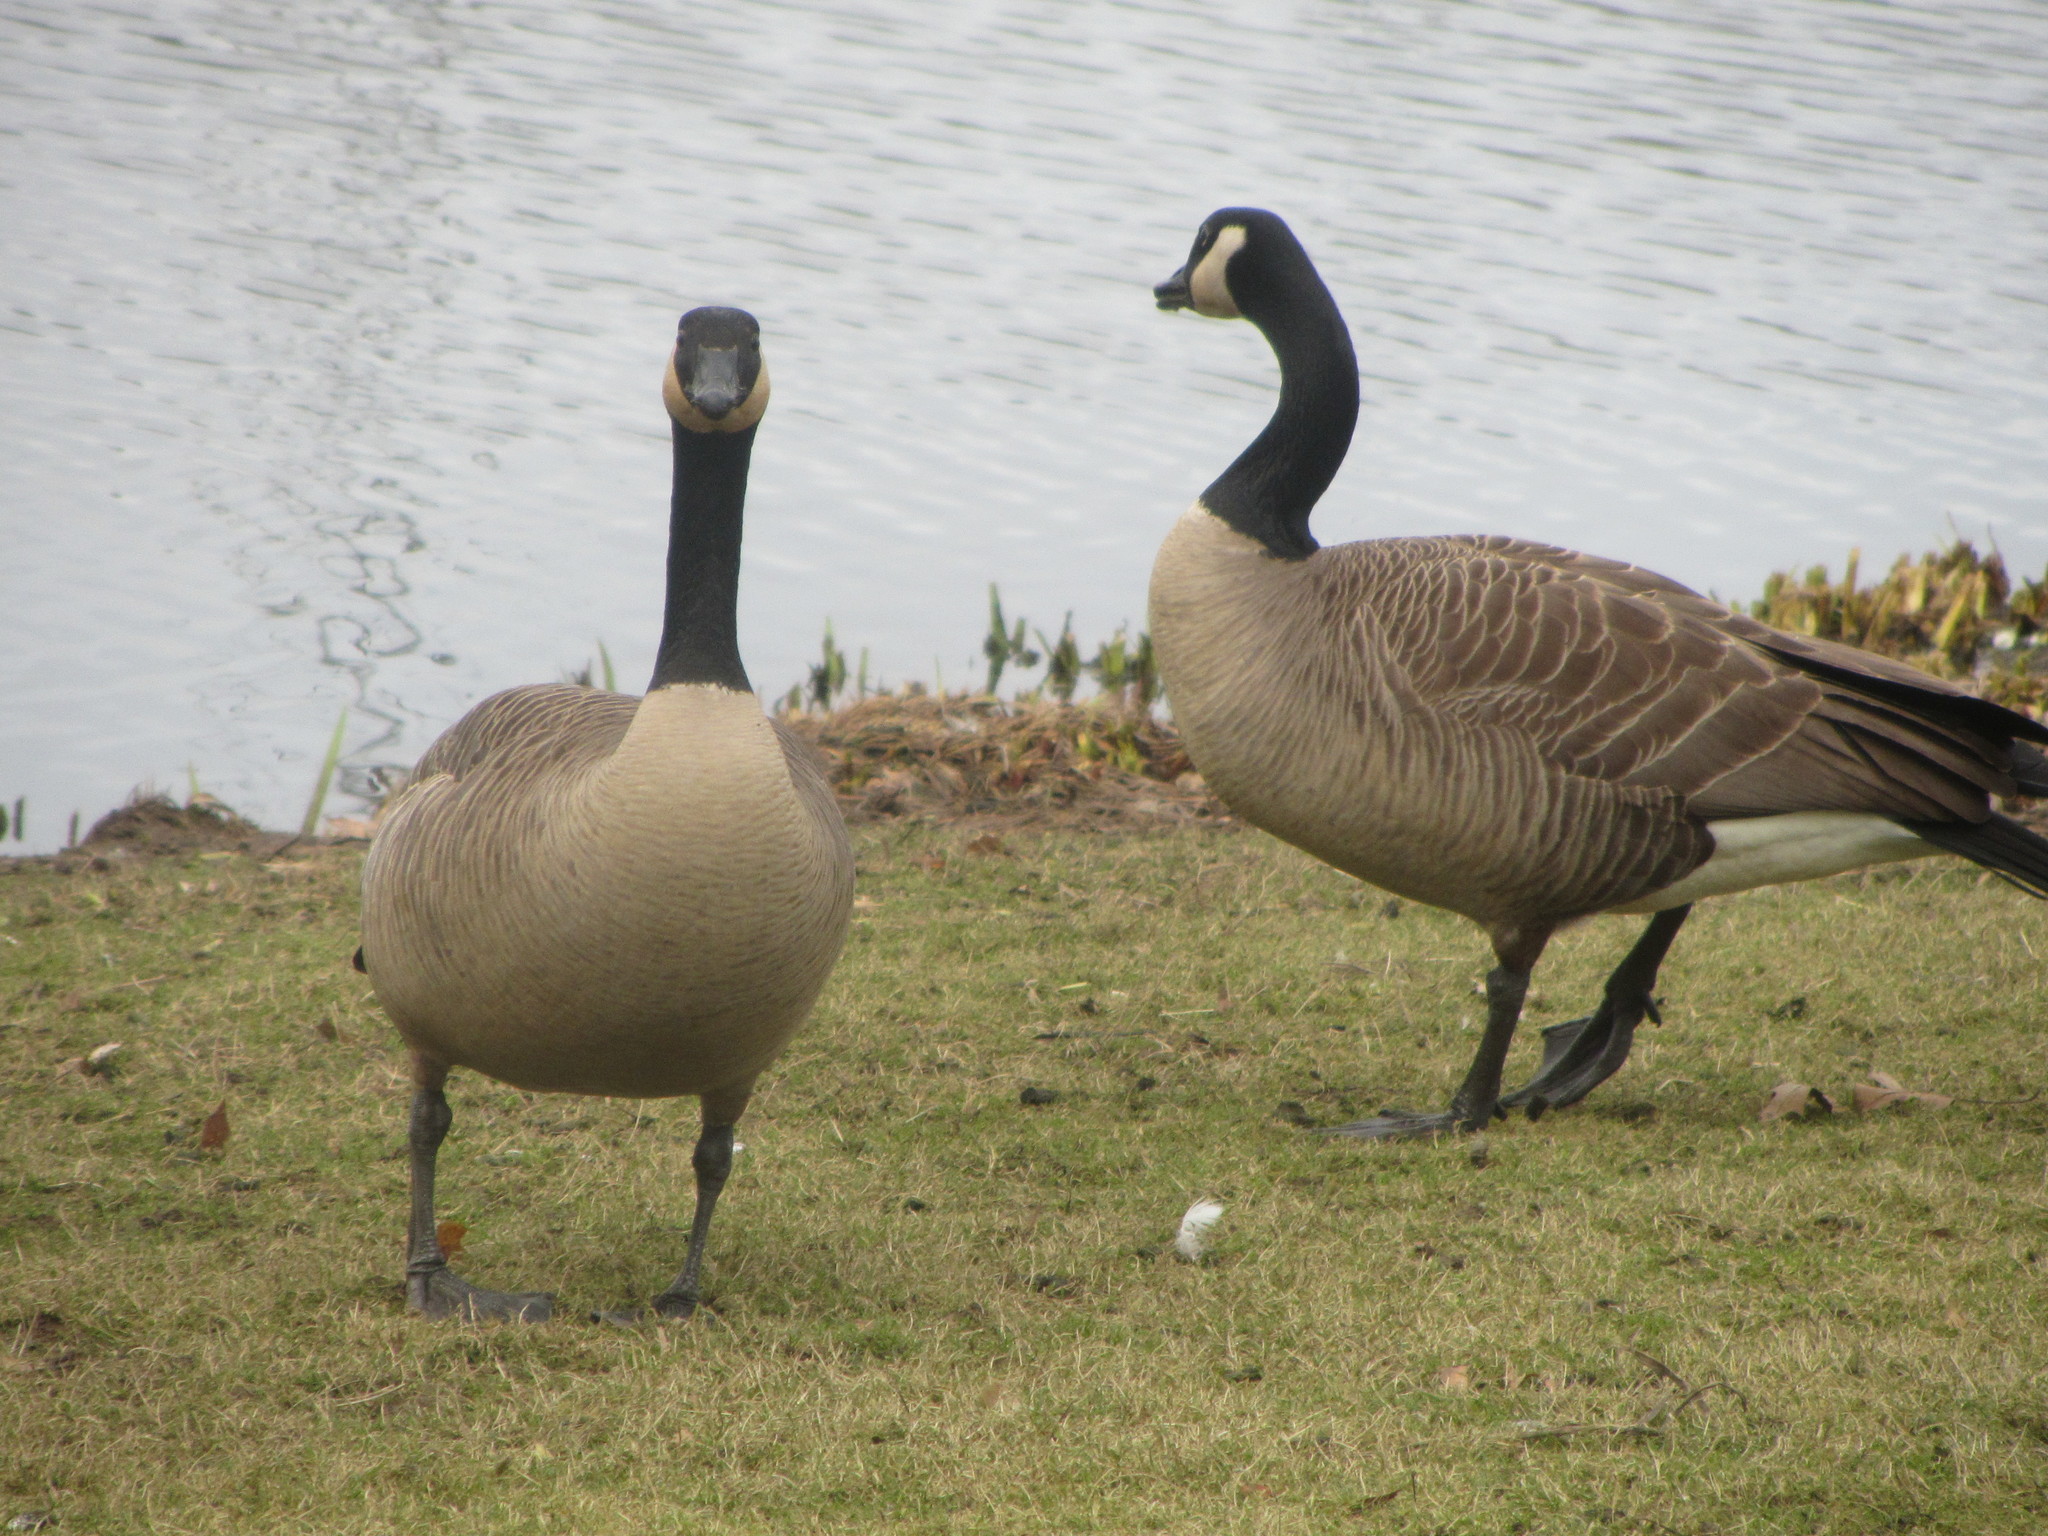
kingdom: Animalia
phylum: Chordata
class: Aves
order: Anseriformes
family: Anatidae
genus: Branta
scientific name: Branta canadensis
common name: Canada goose
